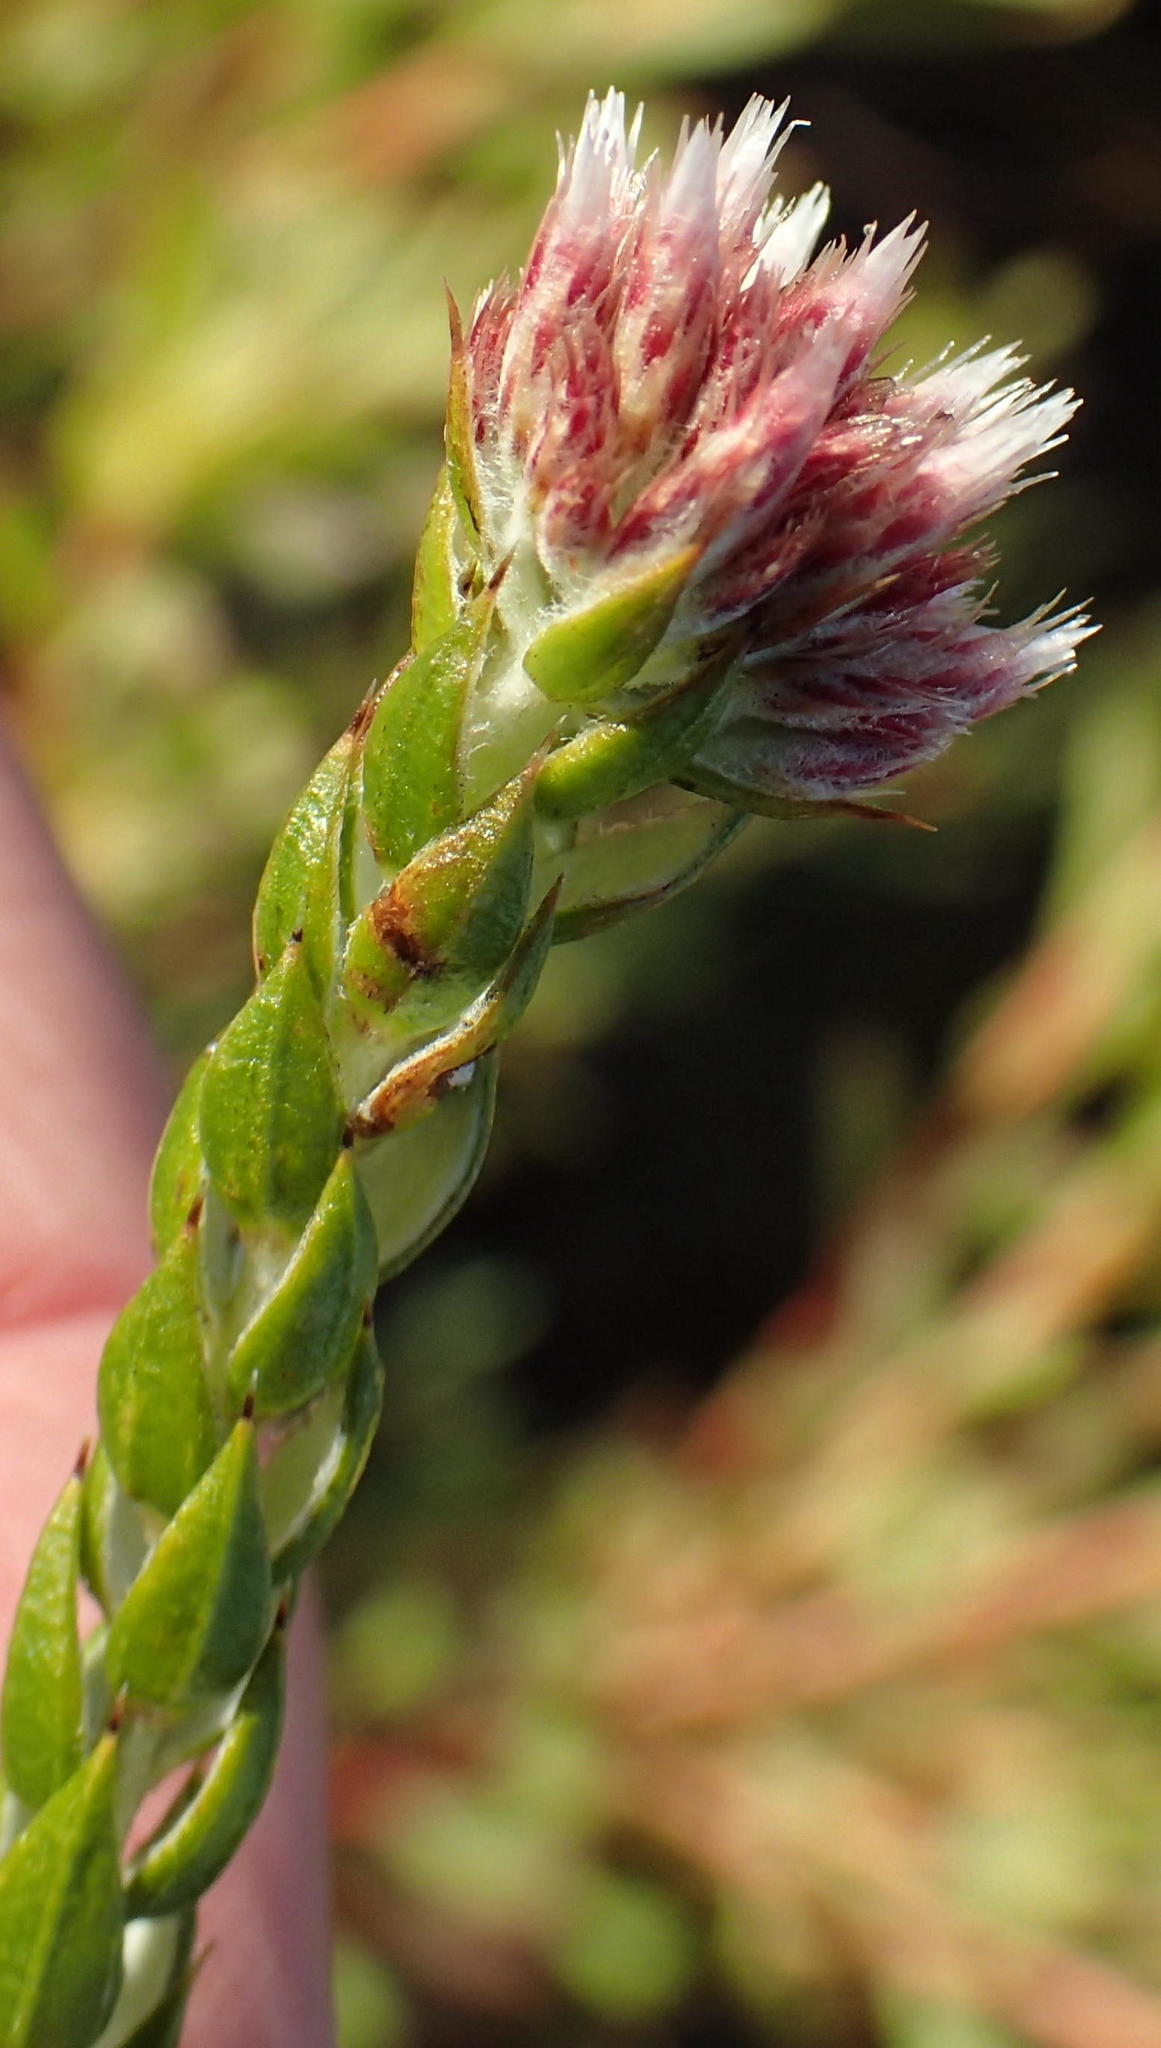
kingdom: Plantae
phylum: Tracheophyta
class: Magnoliopsida
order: Asterales
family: Asteraceae
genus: Metalasia
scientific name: Metalasia pulcherrima
